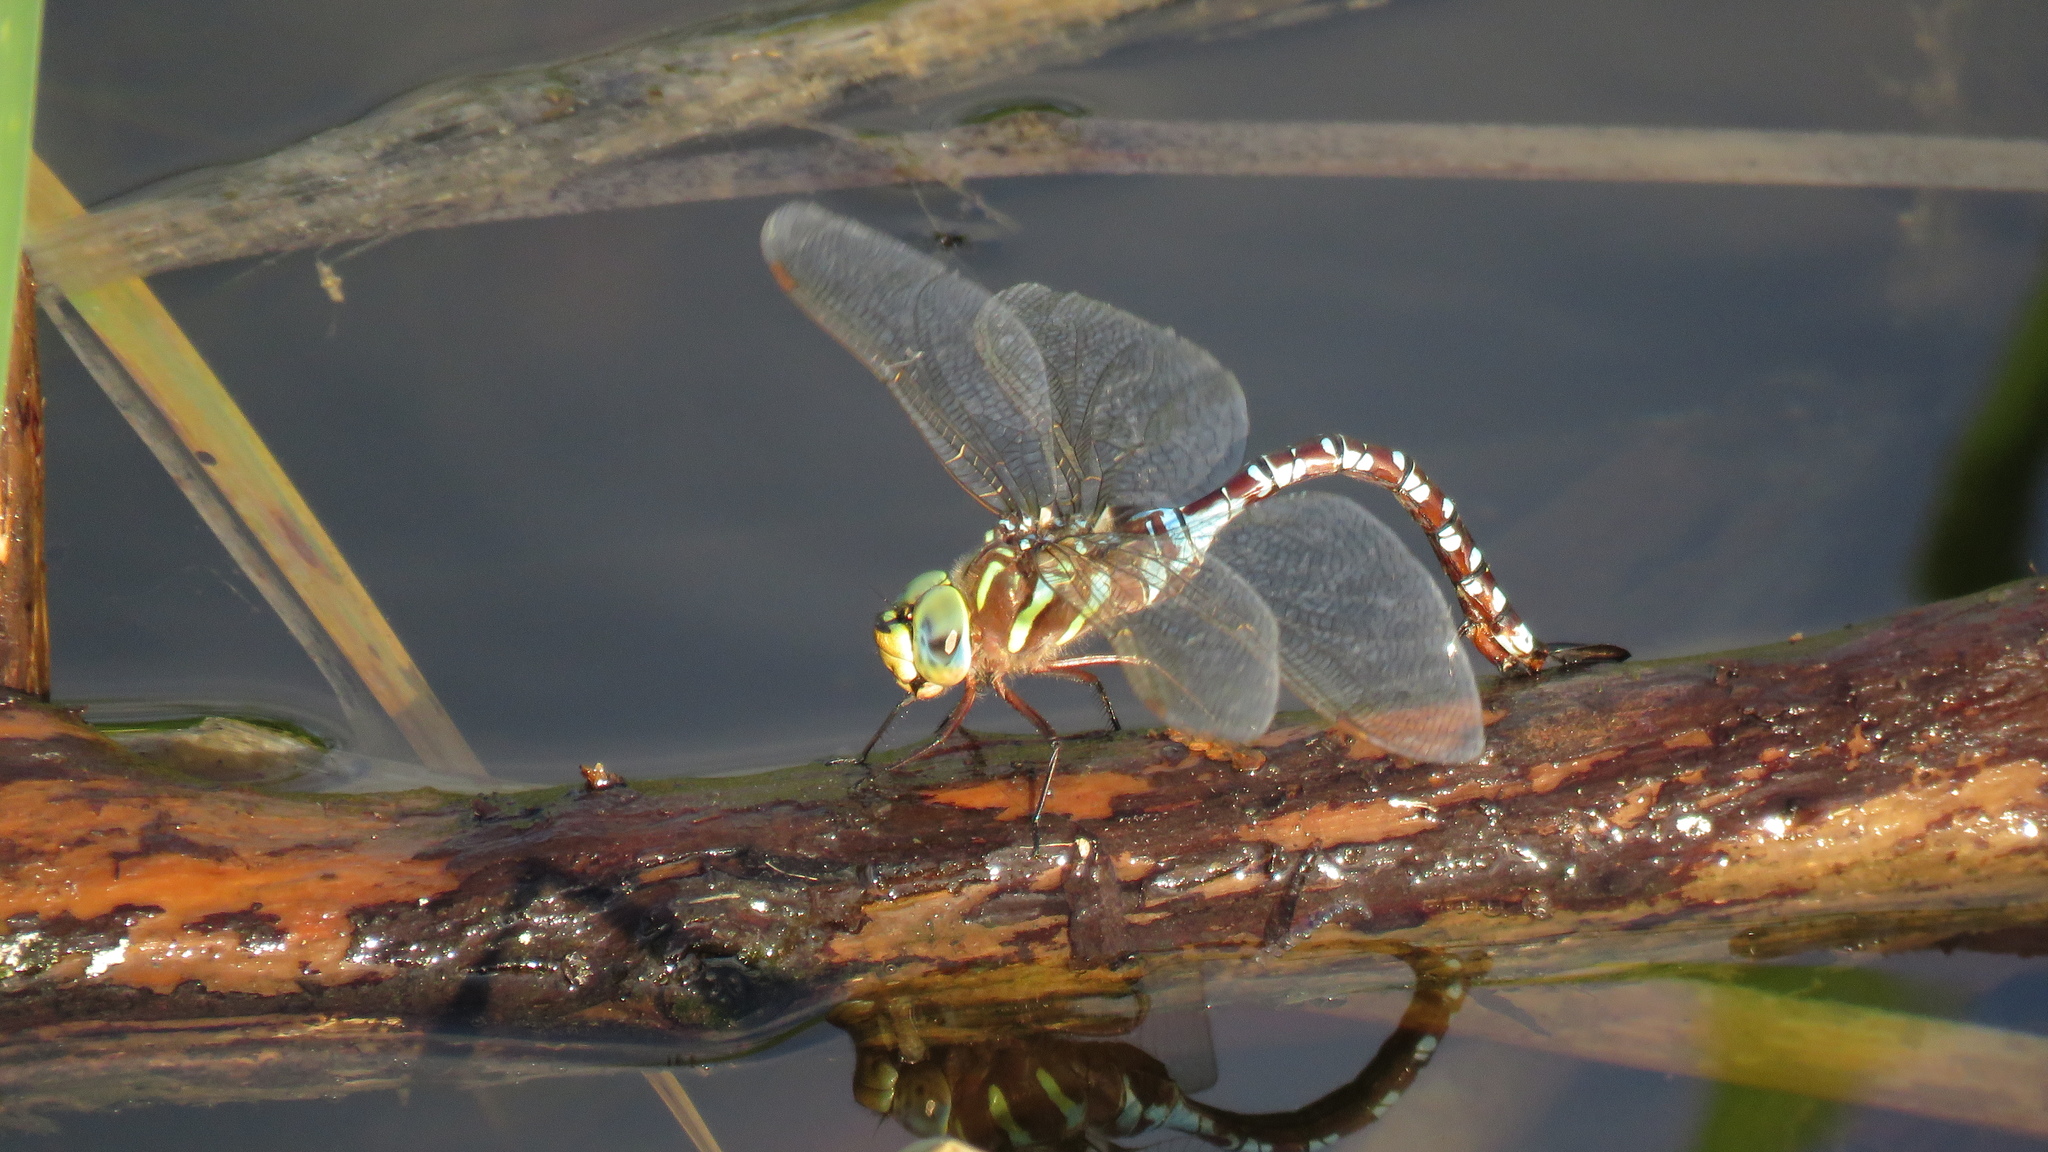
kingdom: Animalia
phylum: Arthropoda
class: Insecta
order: Odonata
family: Aeshnidae
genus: Aeshna
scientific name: Aeshna constricta
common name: Lance-tipped darner
